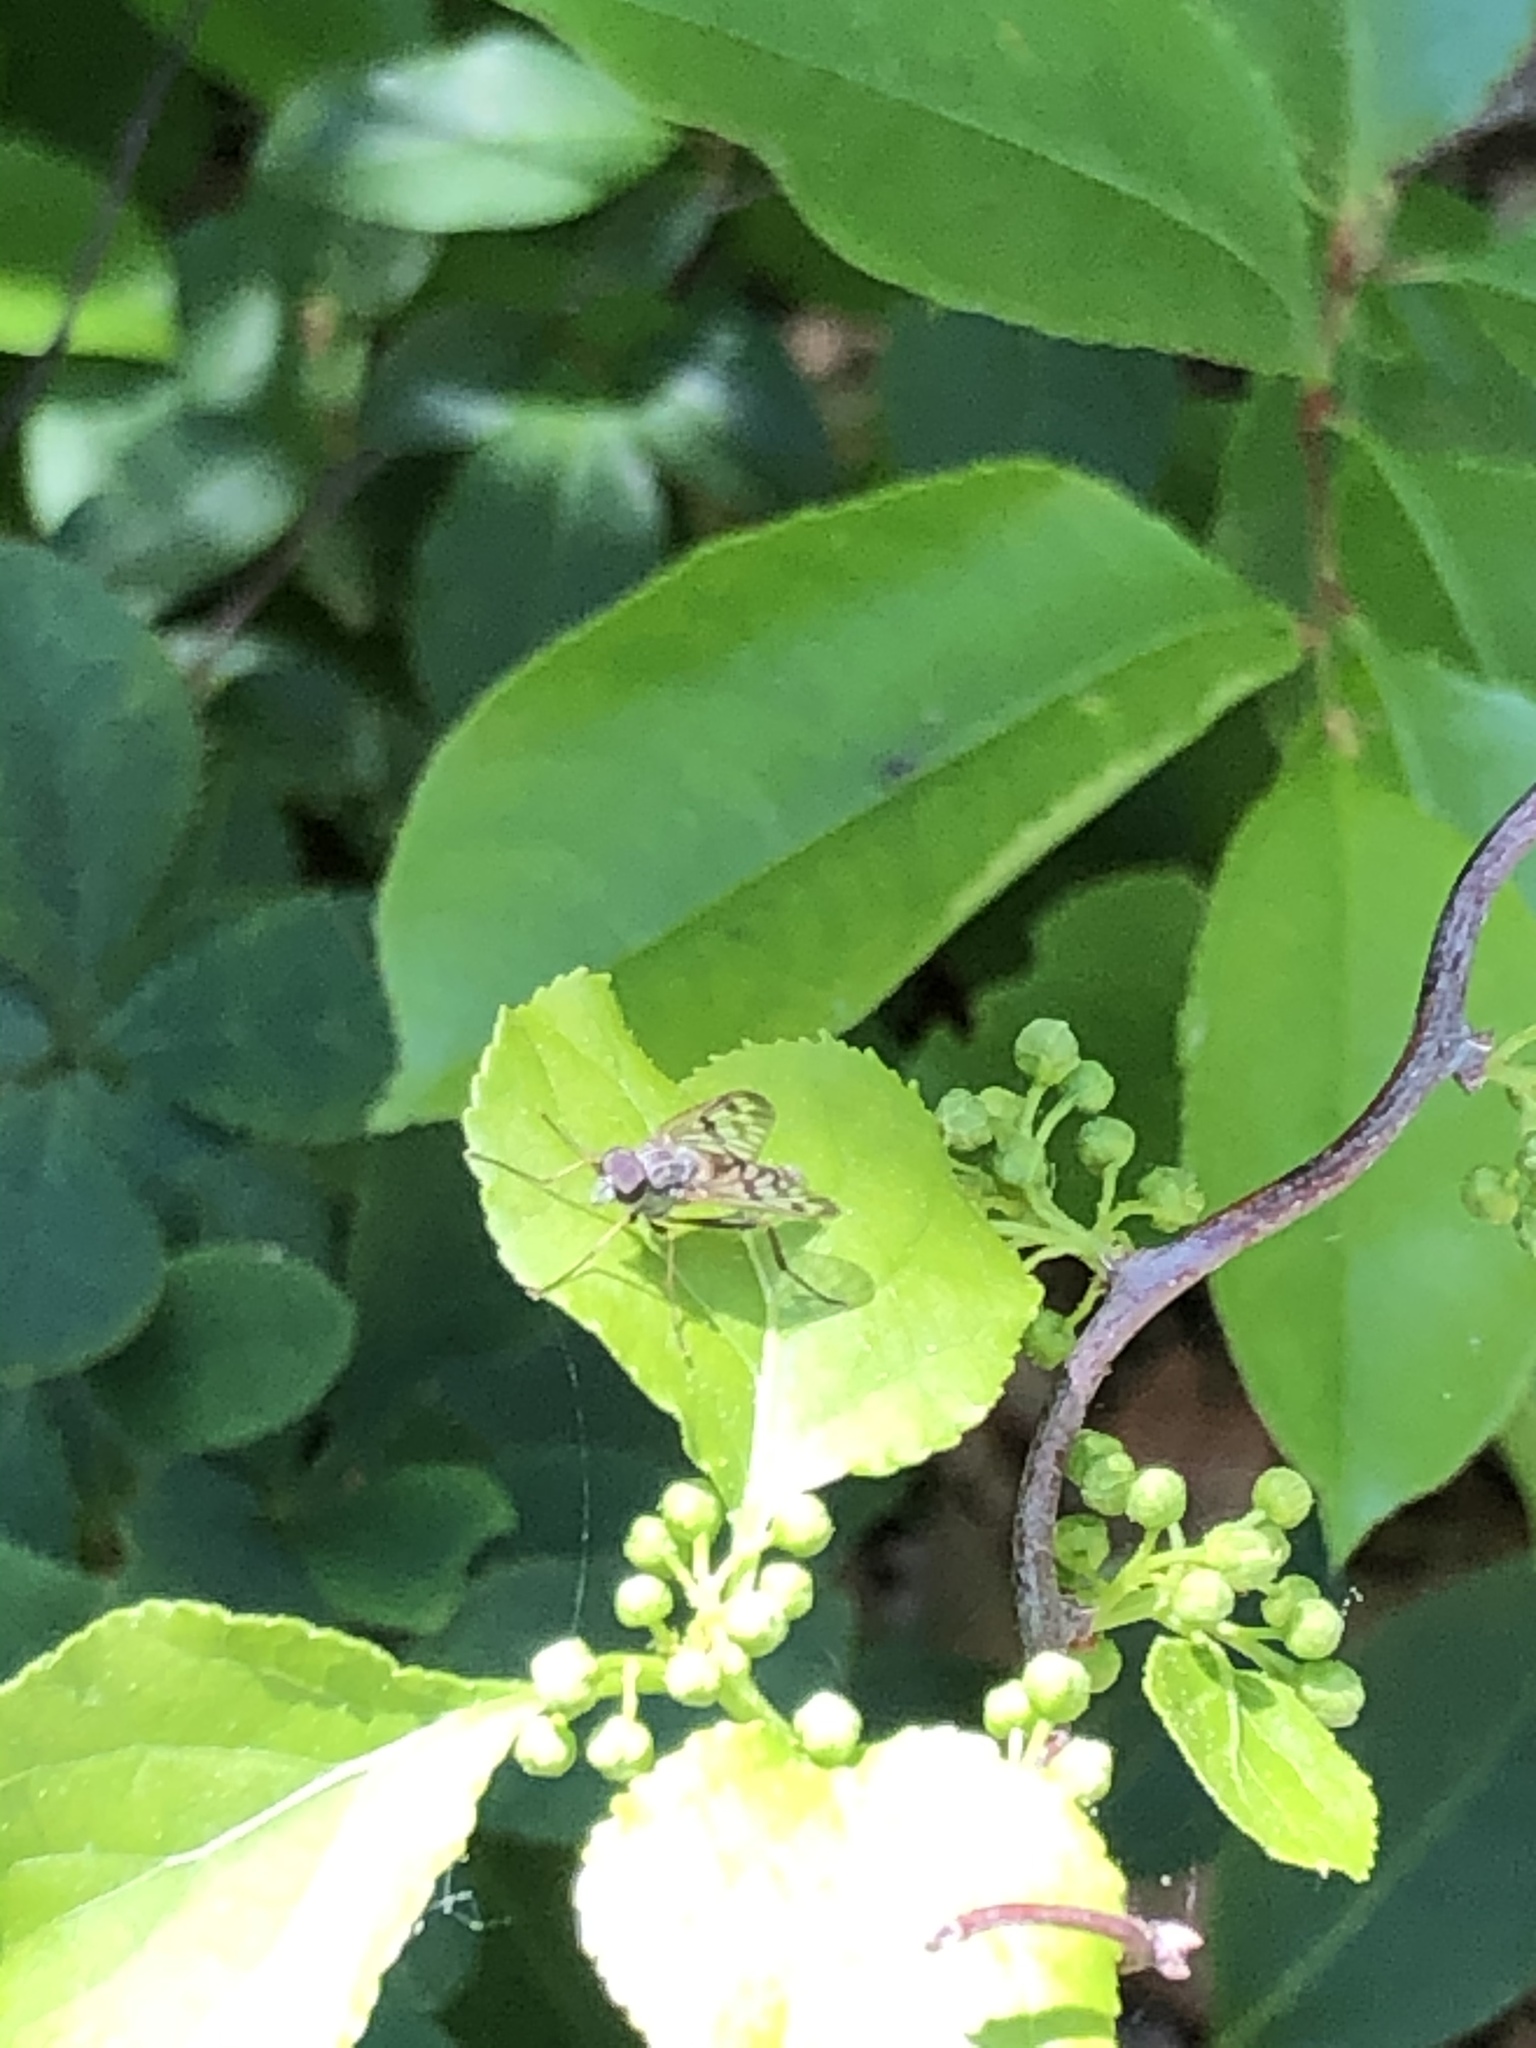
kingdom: Animalia
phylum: Arthropoda
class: Insecta
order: Diptera
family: Rhagionidae
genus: Rhagio
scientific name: Rhagio mystaceus
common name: Common snipe fly
